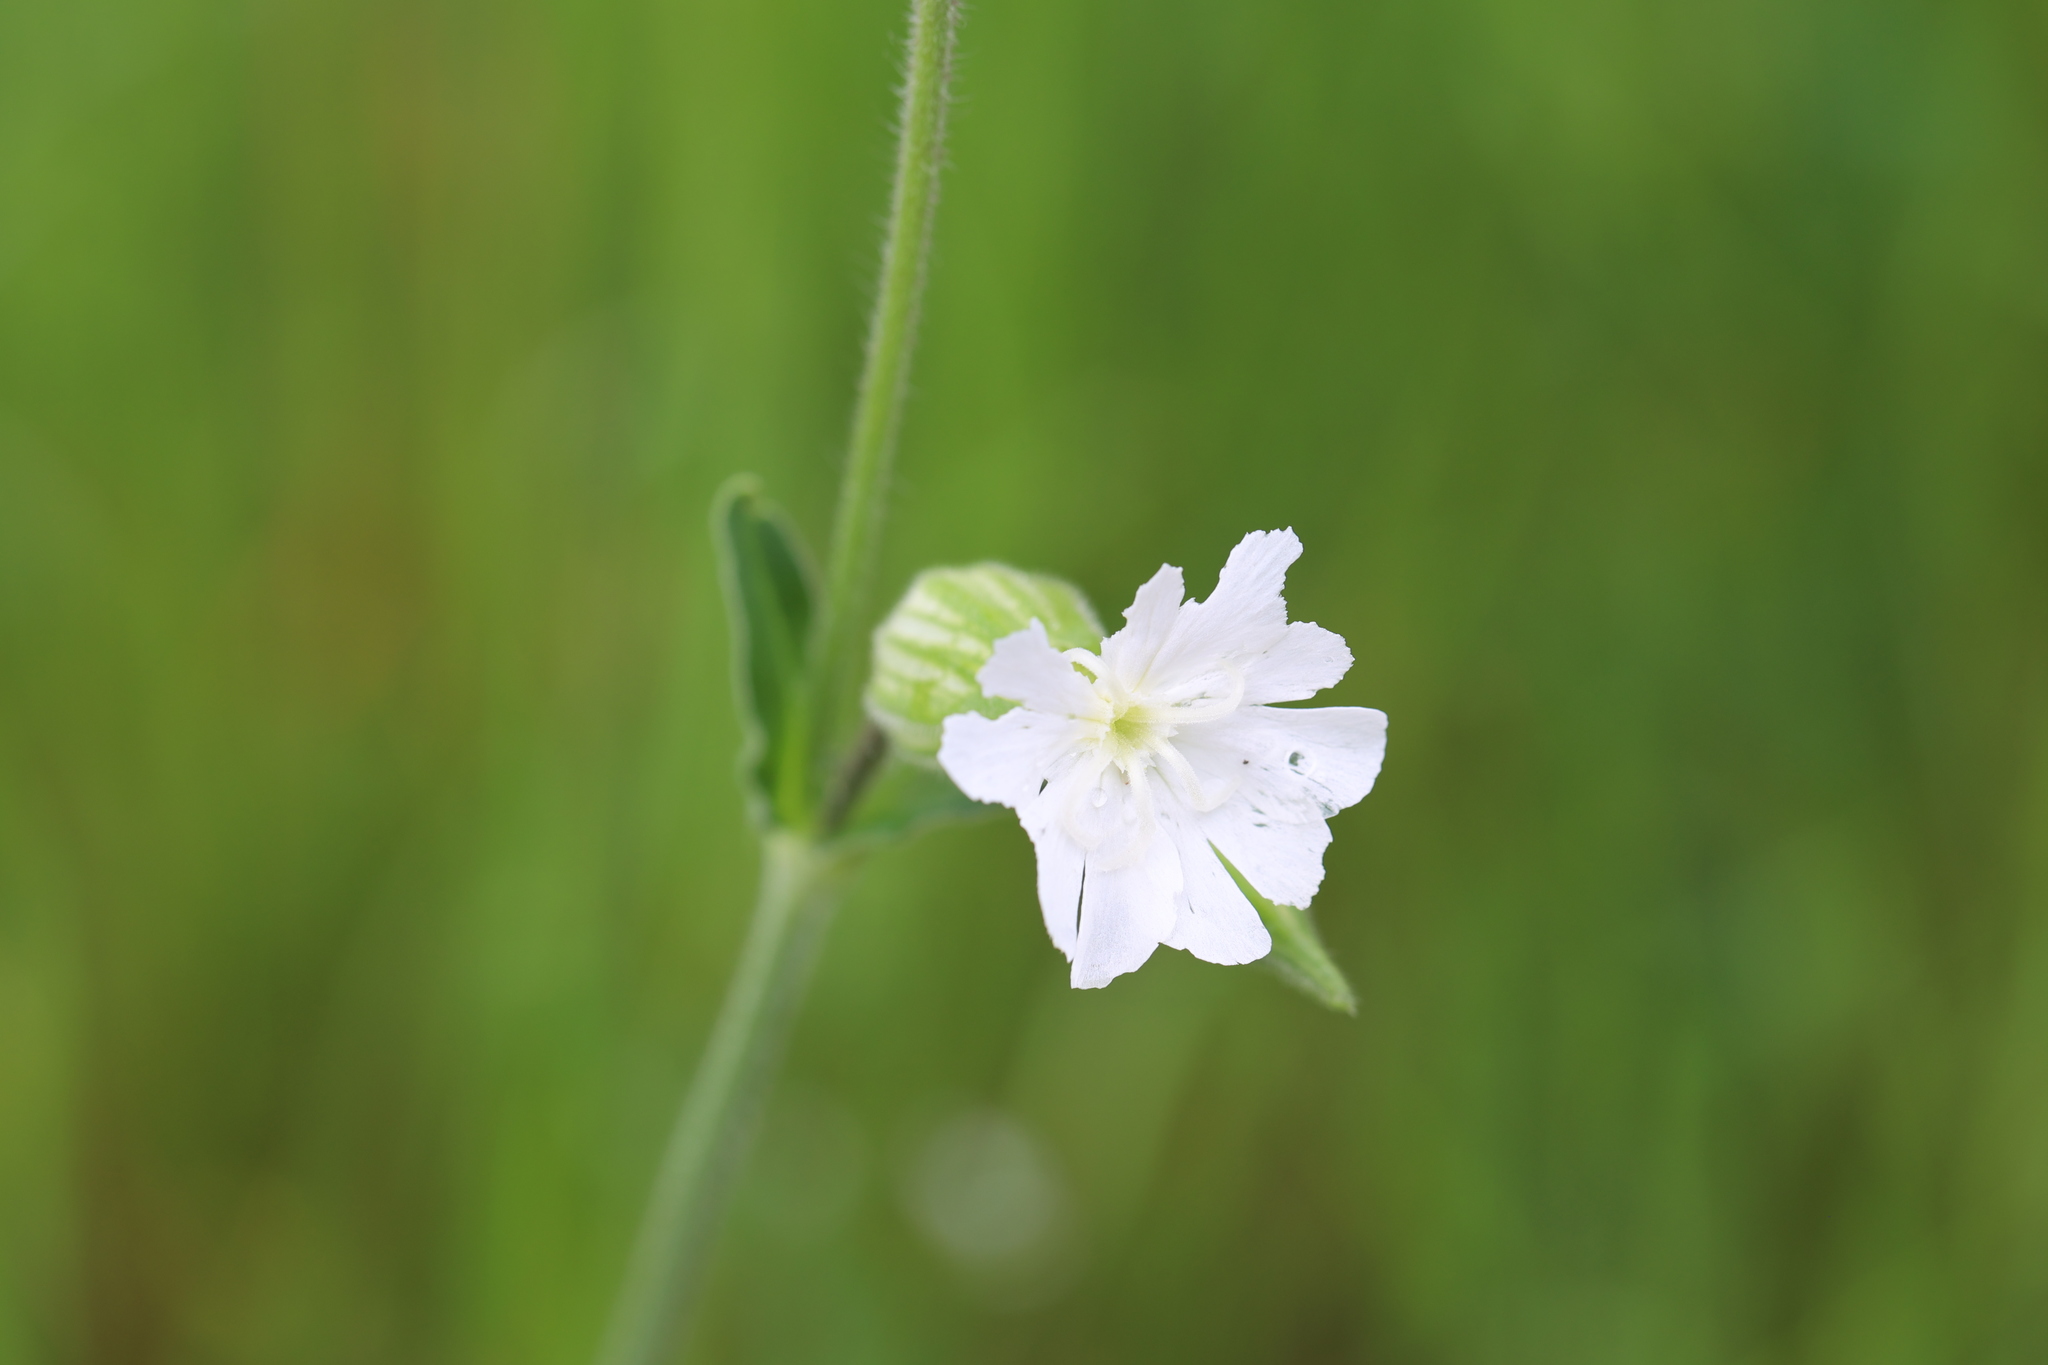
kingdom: Plantae
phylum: Tracheophyta
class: Magnoliopsida
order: Caryophyllales
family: Caryophyllaceae
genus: Silene
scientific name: Silene latifolia
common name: White campion
